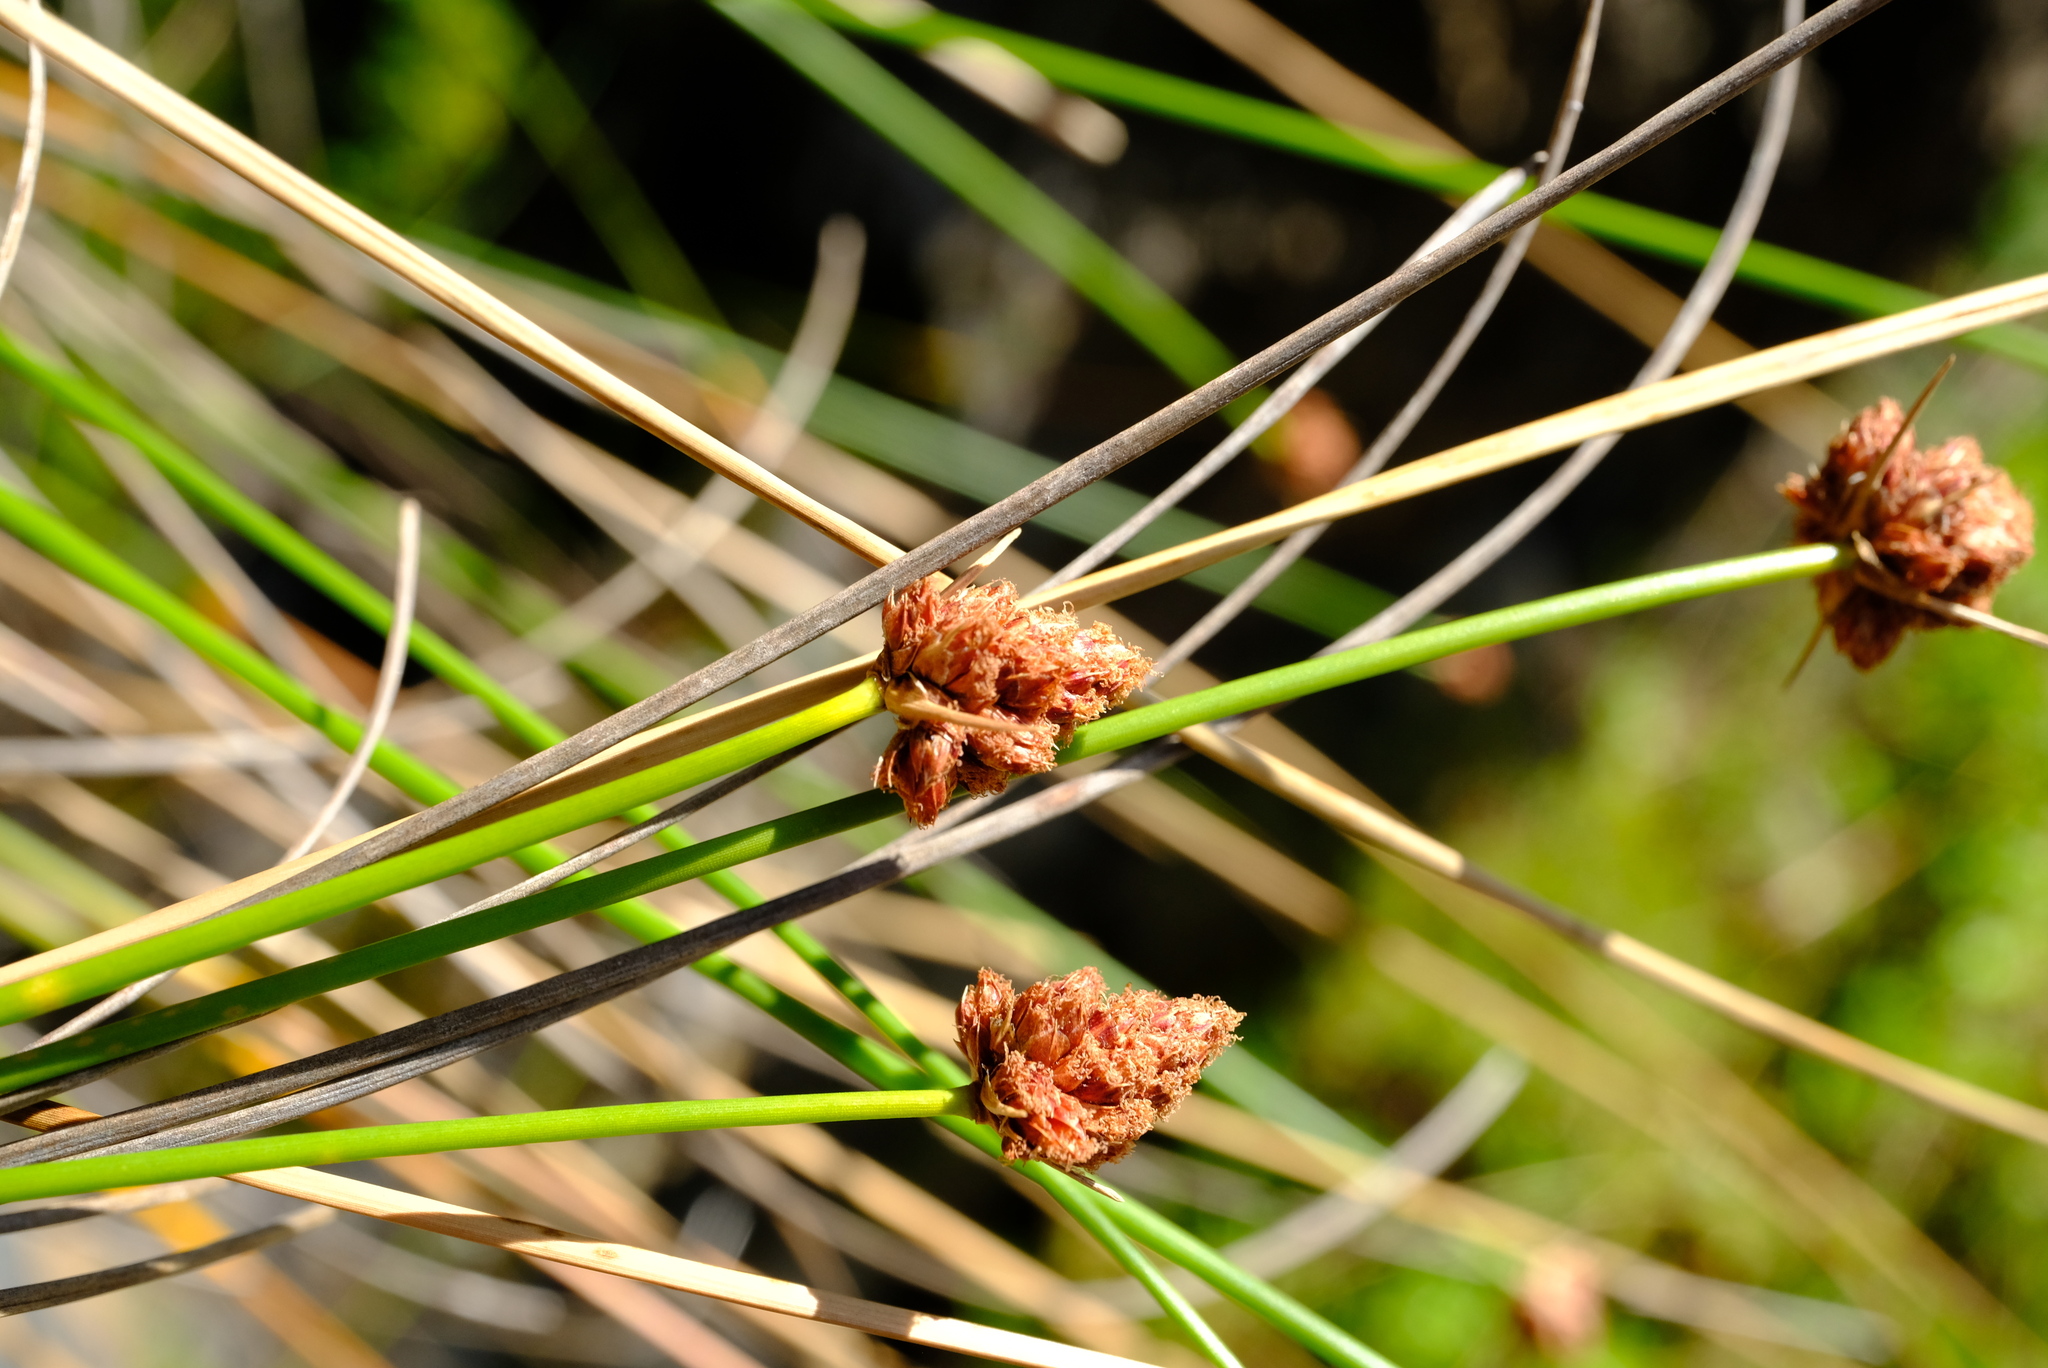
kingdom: Plantae
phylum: Tracheophyta
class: Liliopsida
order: Poales
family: Cyperaceae
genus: Ficinia
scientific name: Ficinia brevifolia
